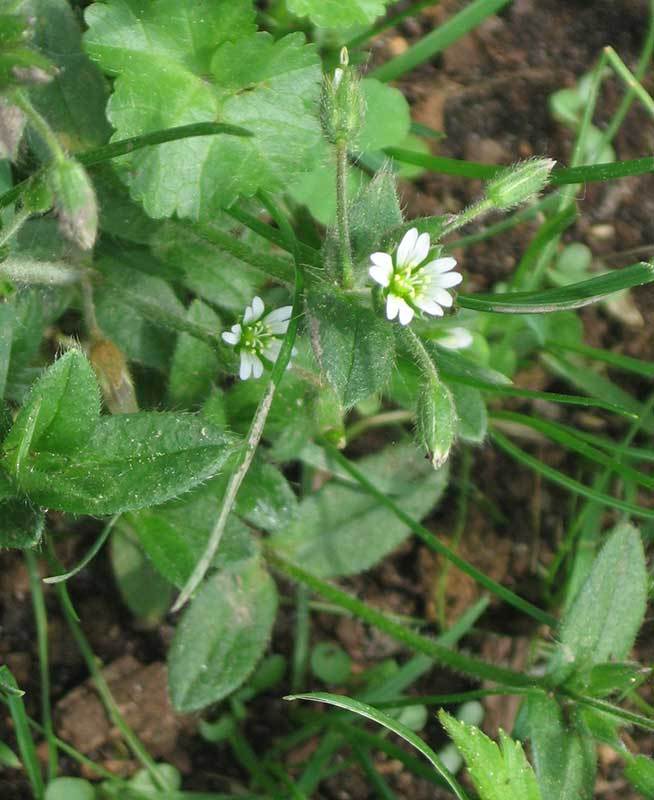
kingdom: Plantae
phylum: Tracheophyta
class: Magnoliopsida
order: Caryophyllales
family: Caryophyllaceae
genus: Cerastium
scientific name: Cerastium fontanum
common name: Common mouse-ear
